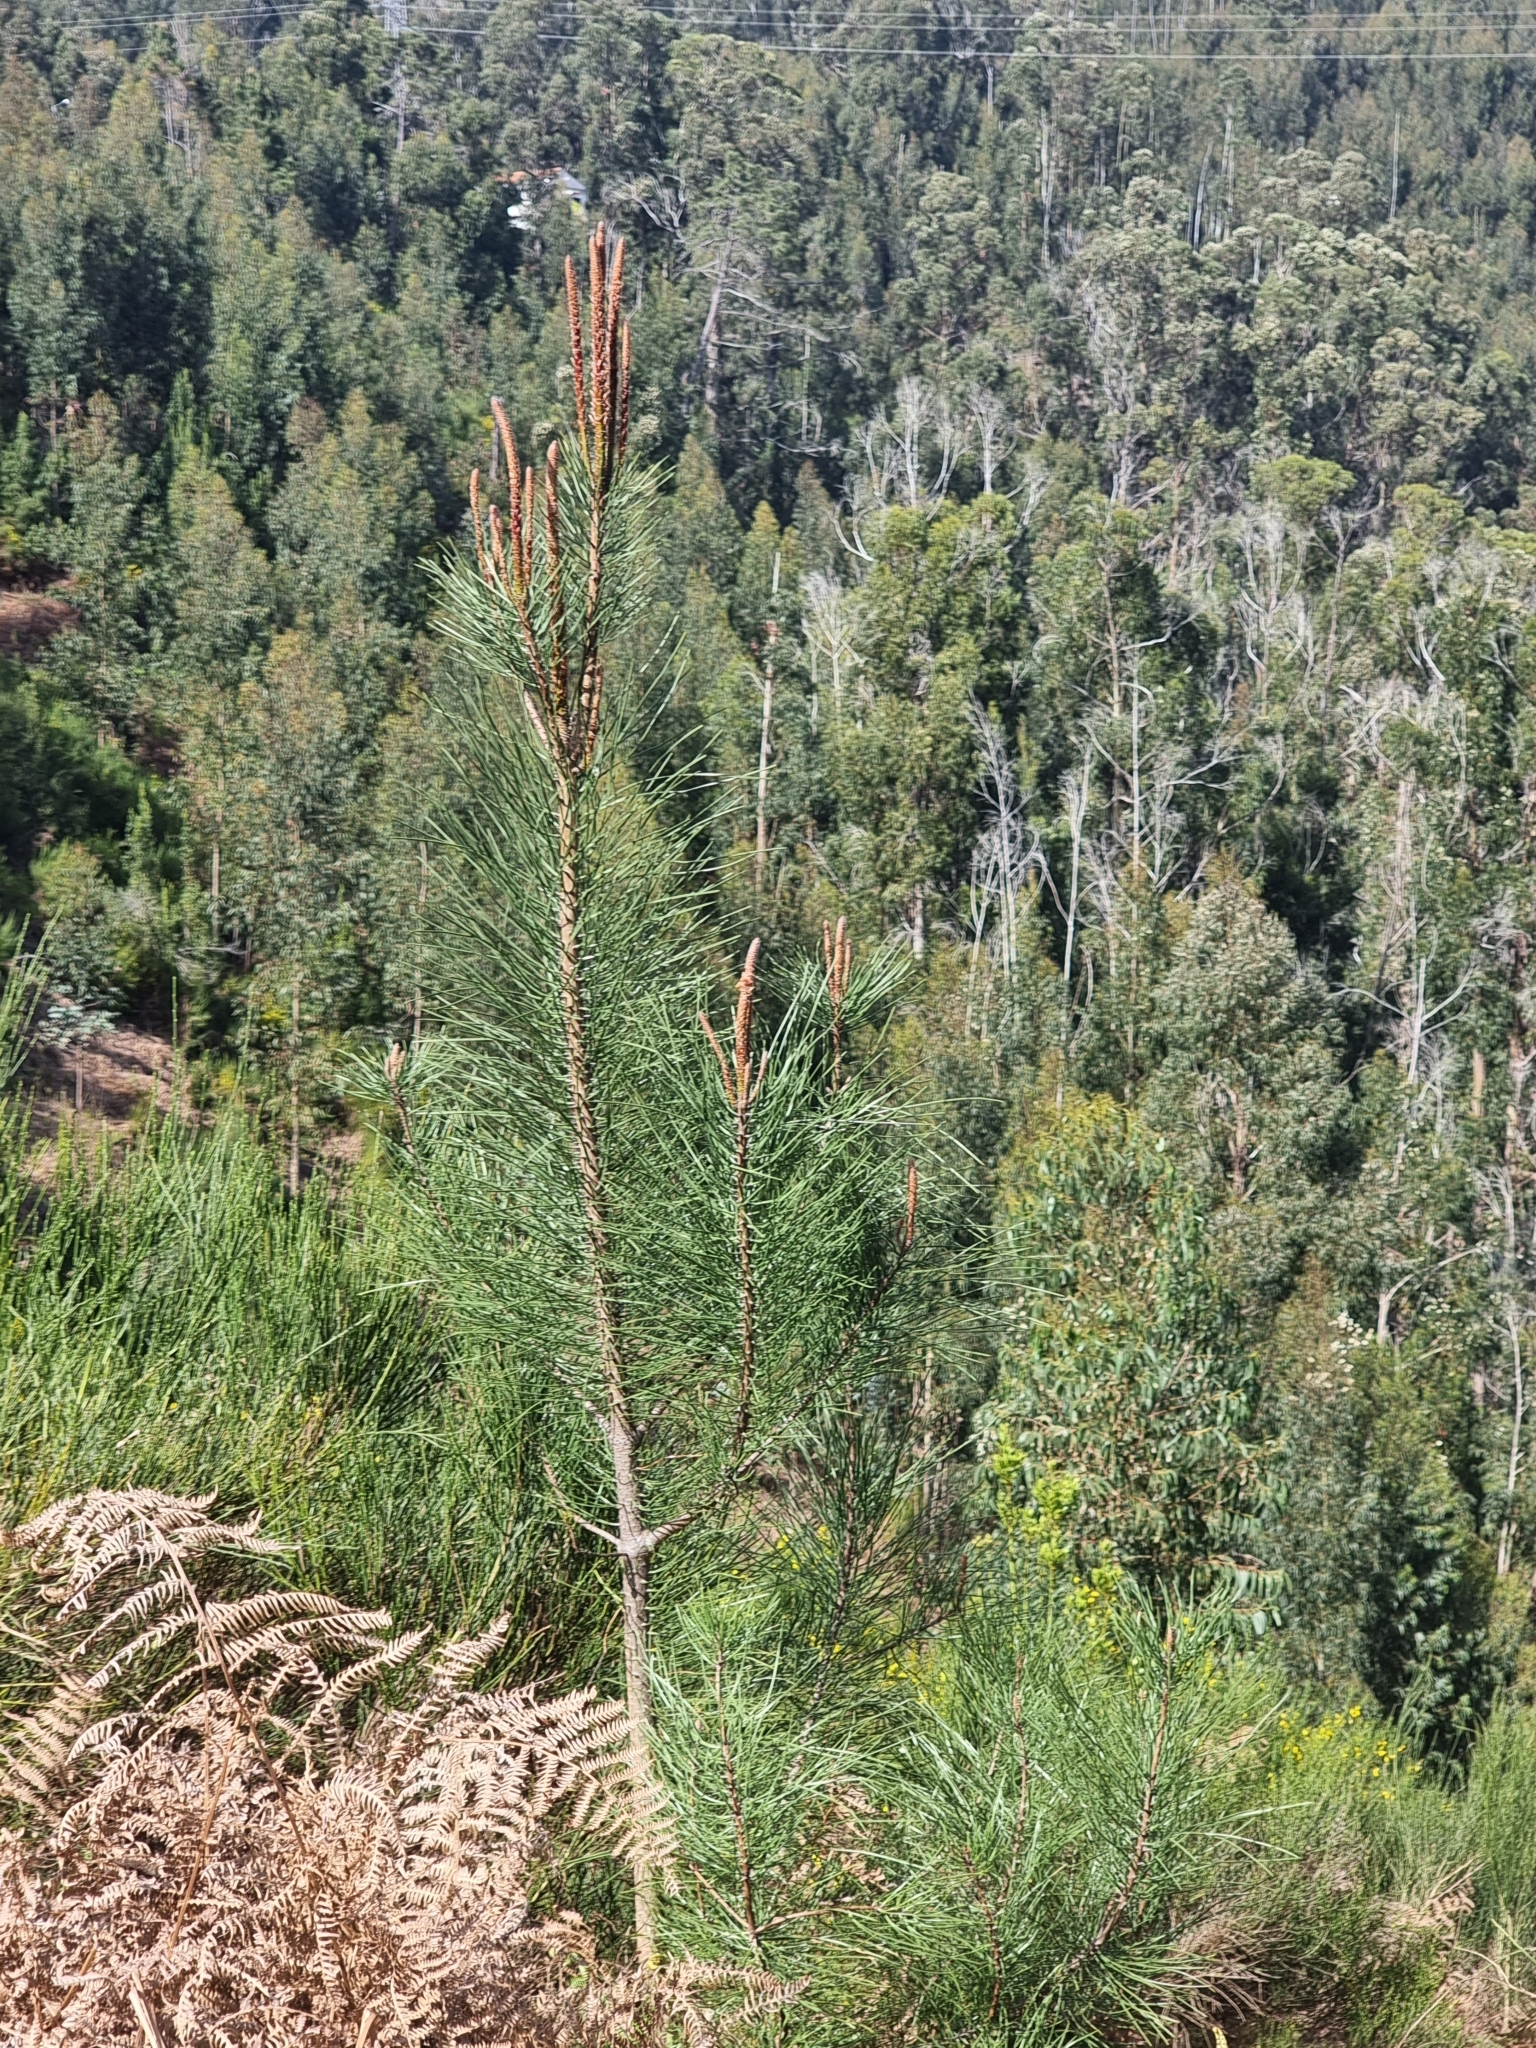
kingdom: Plantae
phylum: Tracheophyta
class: Pinopsida
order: Pinales
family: Pinaceae
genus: Pinus
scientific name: Pinus pinaster
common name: Maritime pine
